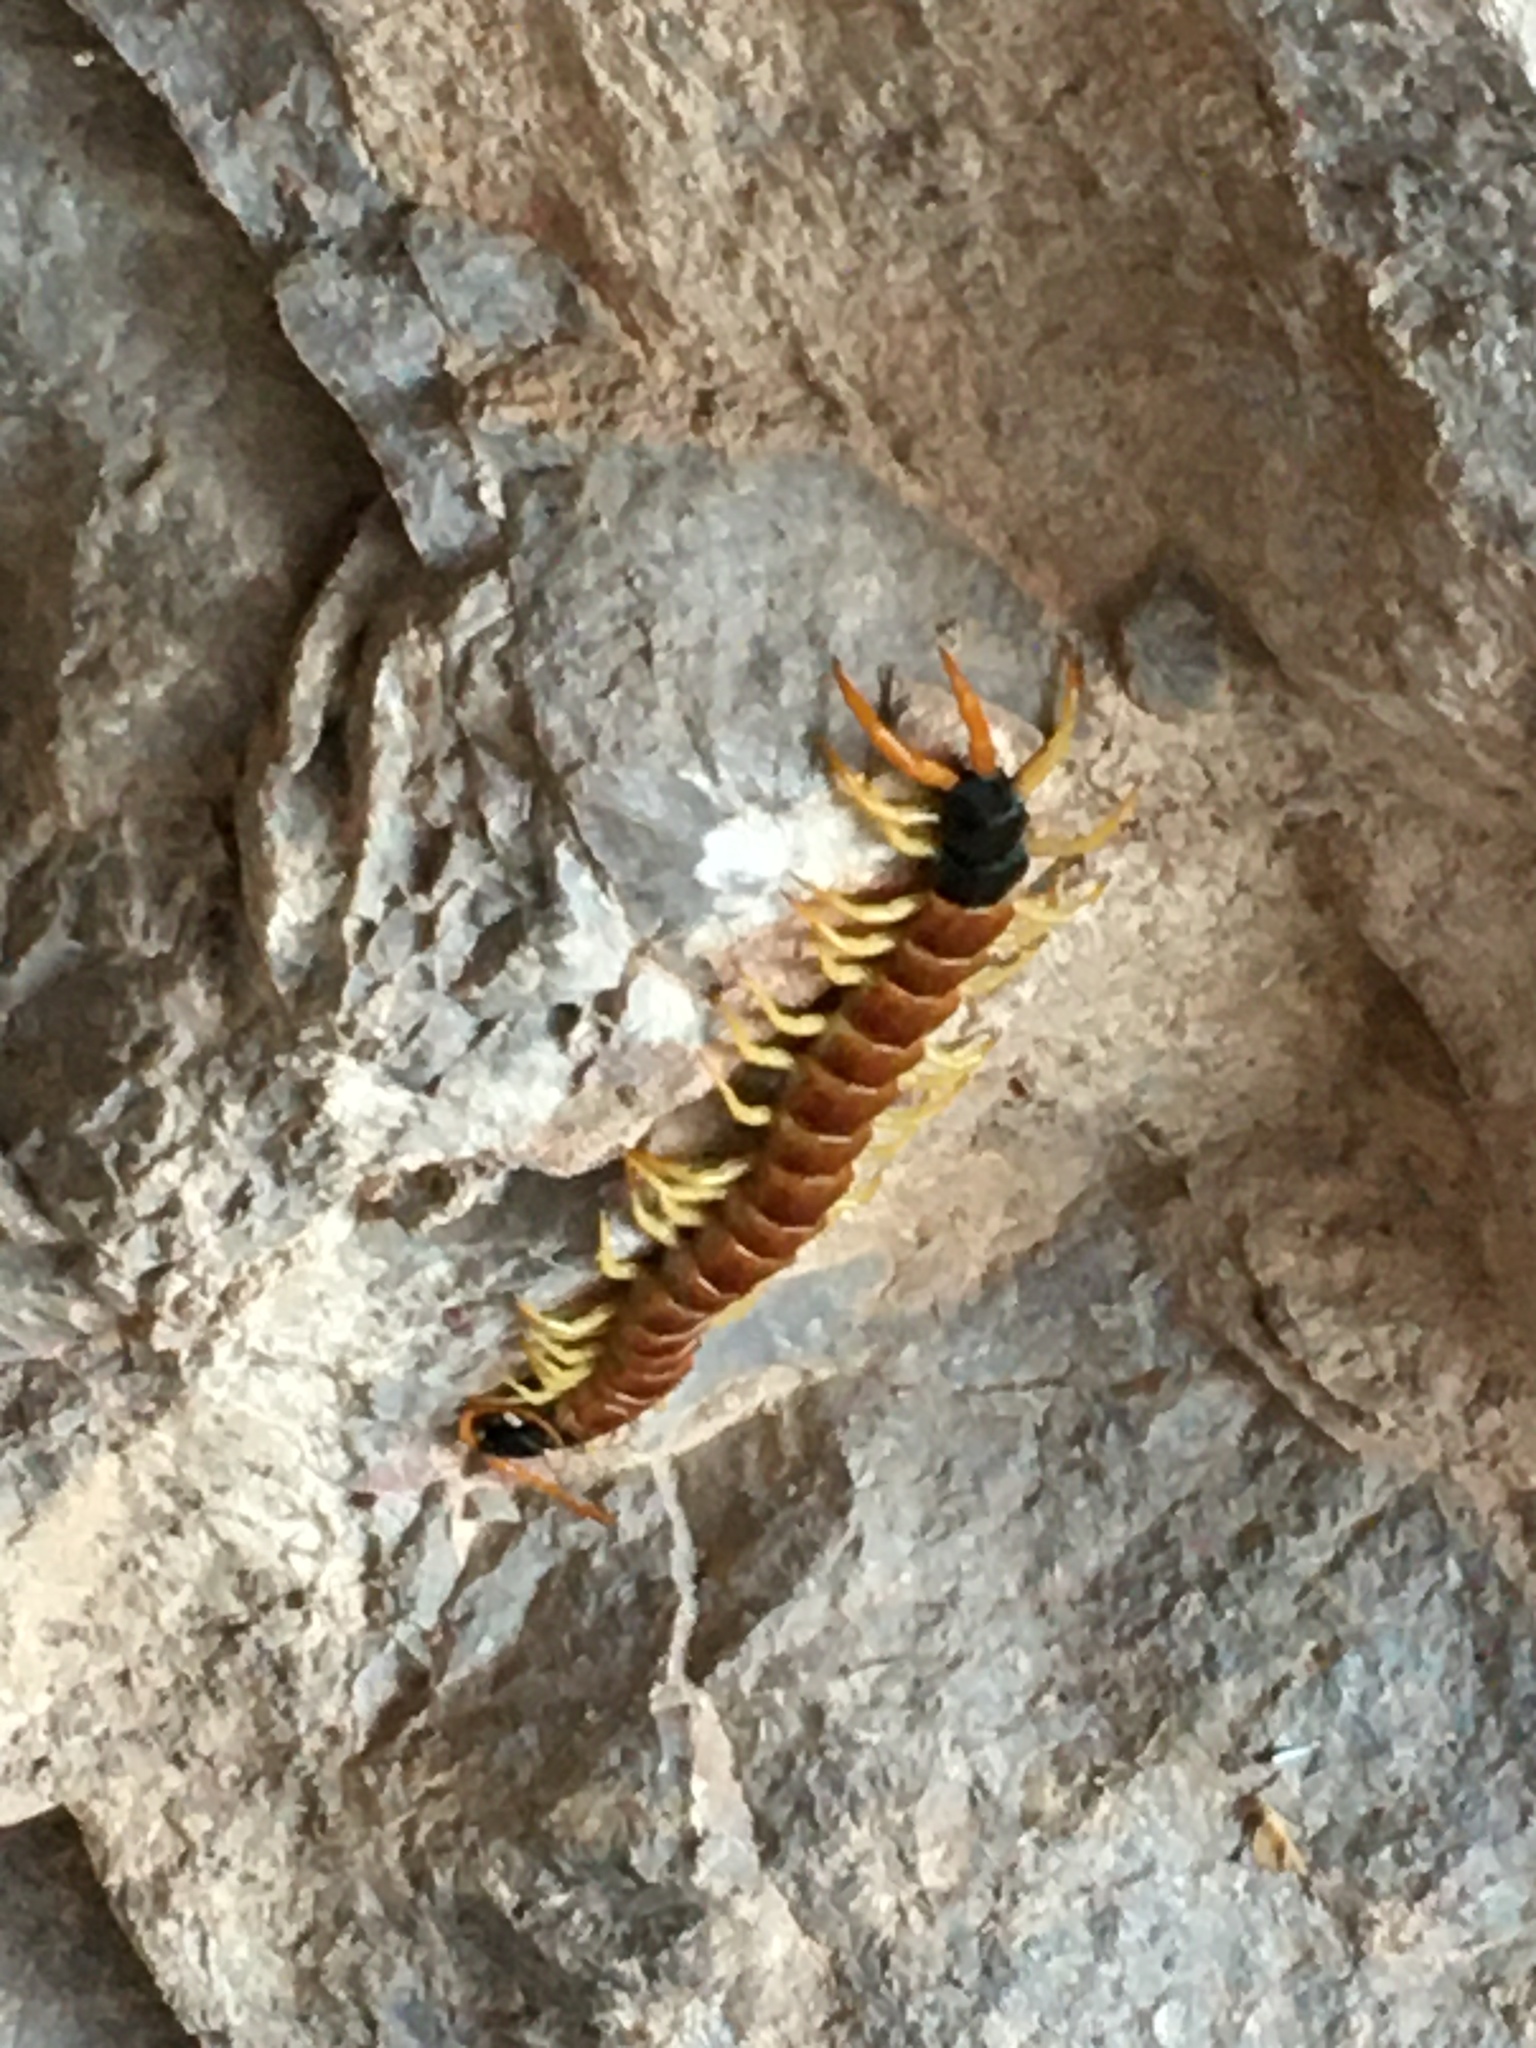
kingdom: Animalia
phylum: Arthropoda
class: Chilopoda
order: Scolopendromorpha
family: Scolopendridae
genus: Scolopendra
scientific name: Scolopendra heros
